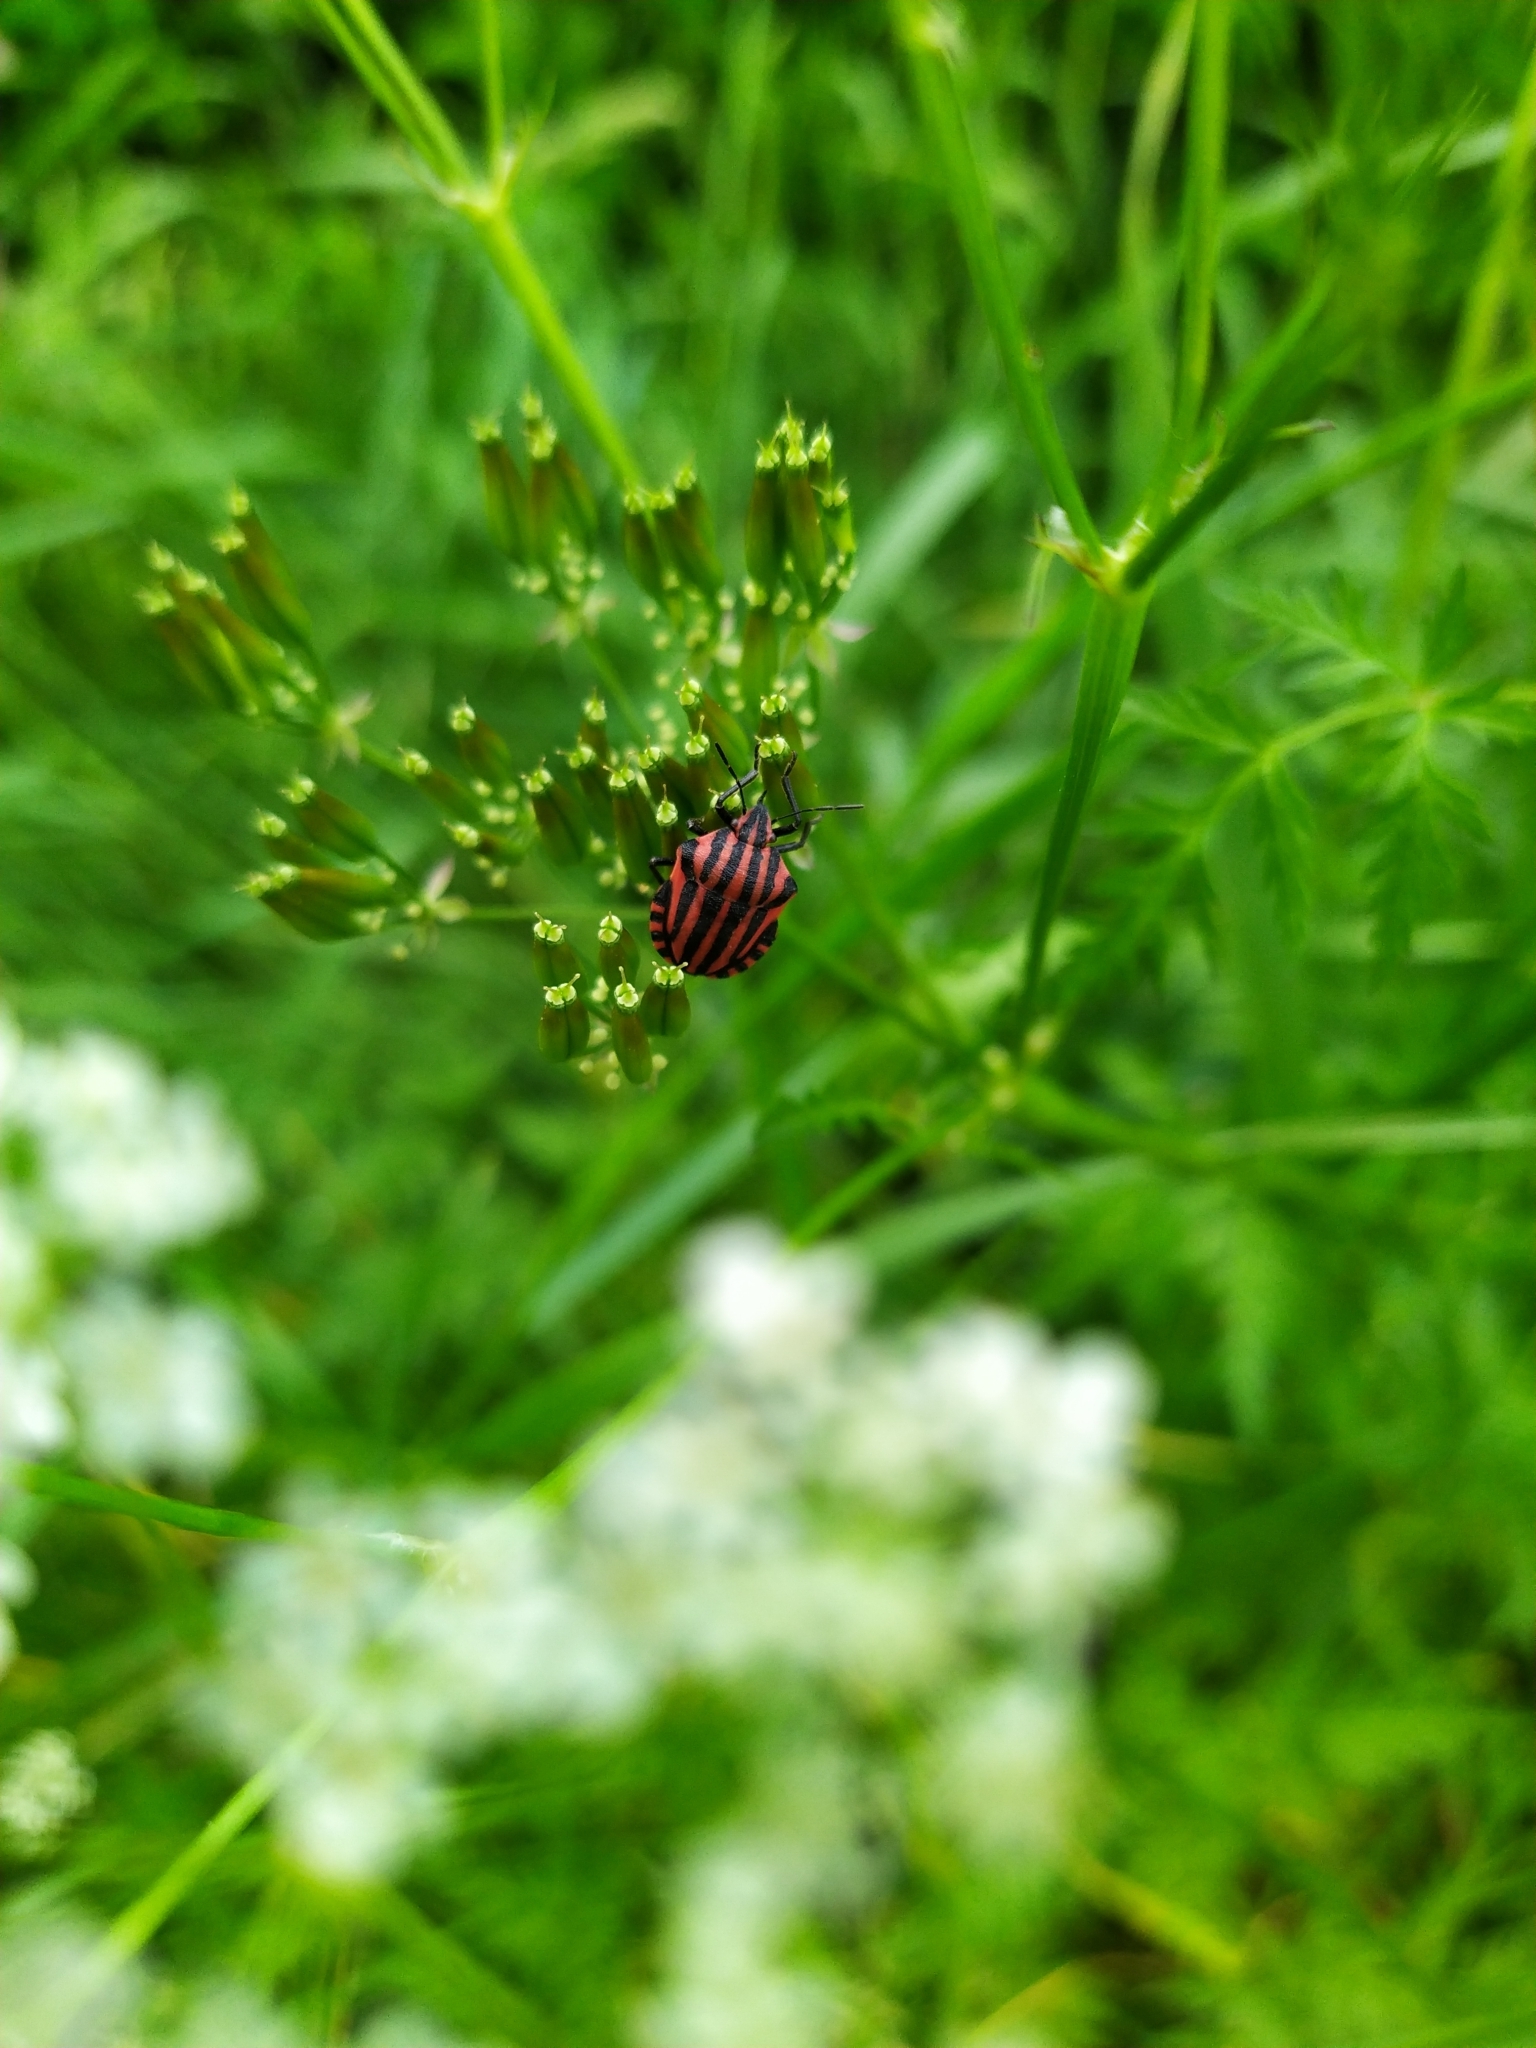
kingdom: Animalia
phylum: Arthropoda
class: Insecta
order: Hemiptera
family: Pentatomidae
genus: Graphosoma
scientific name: Graphosoma italicum
